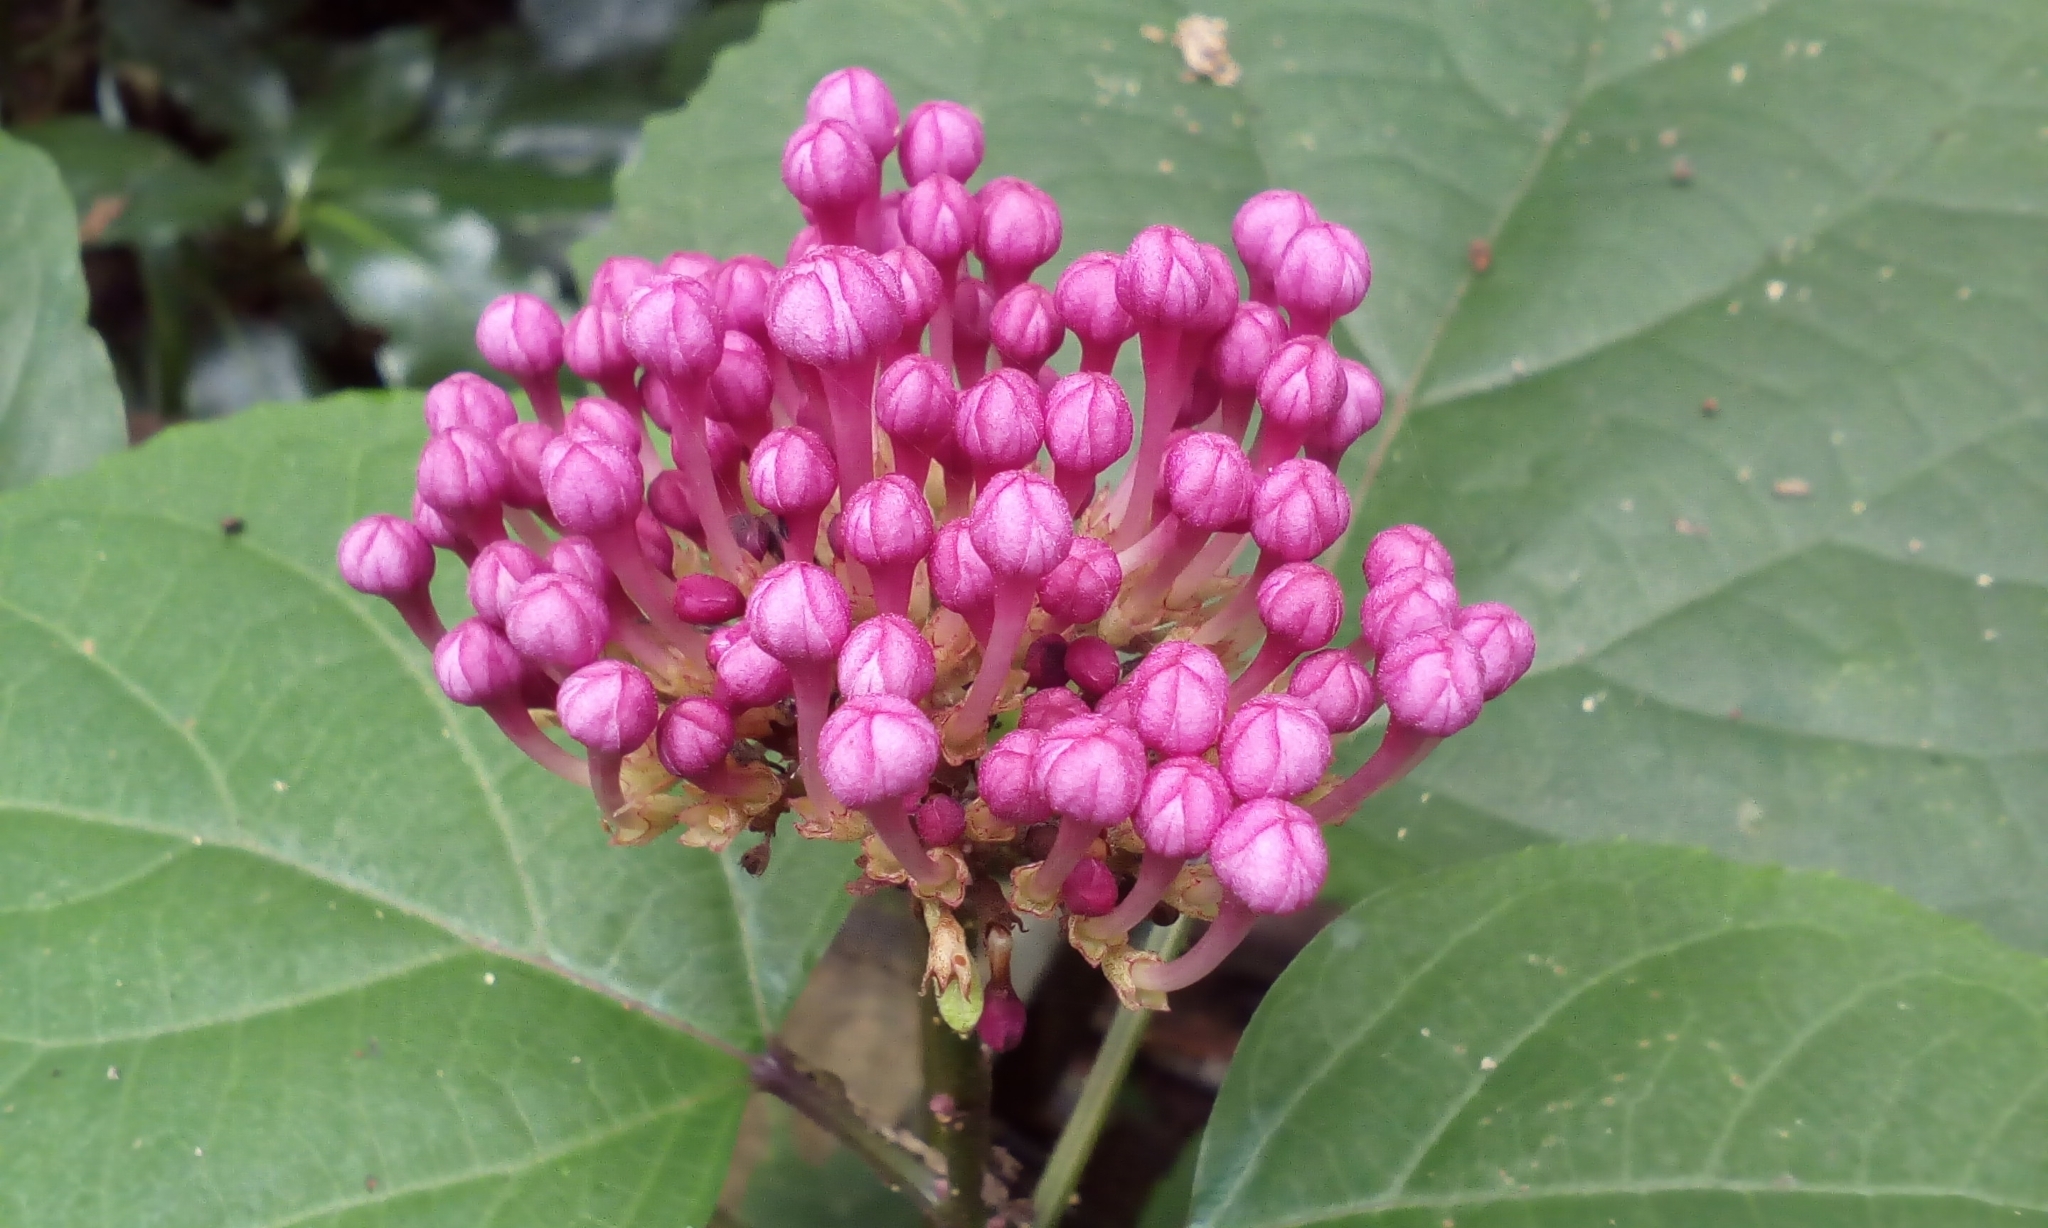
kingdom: Plantae
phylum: Tracheophyta
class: Magnoliopsida
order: Lamiales
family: Lamiaceae
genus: Clerodendrum
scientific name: Clerodendrum bungei
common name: Rose glorybower
